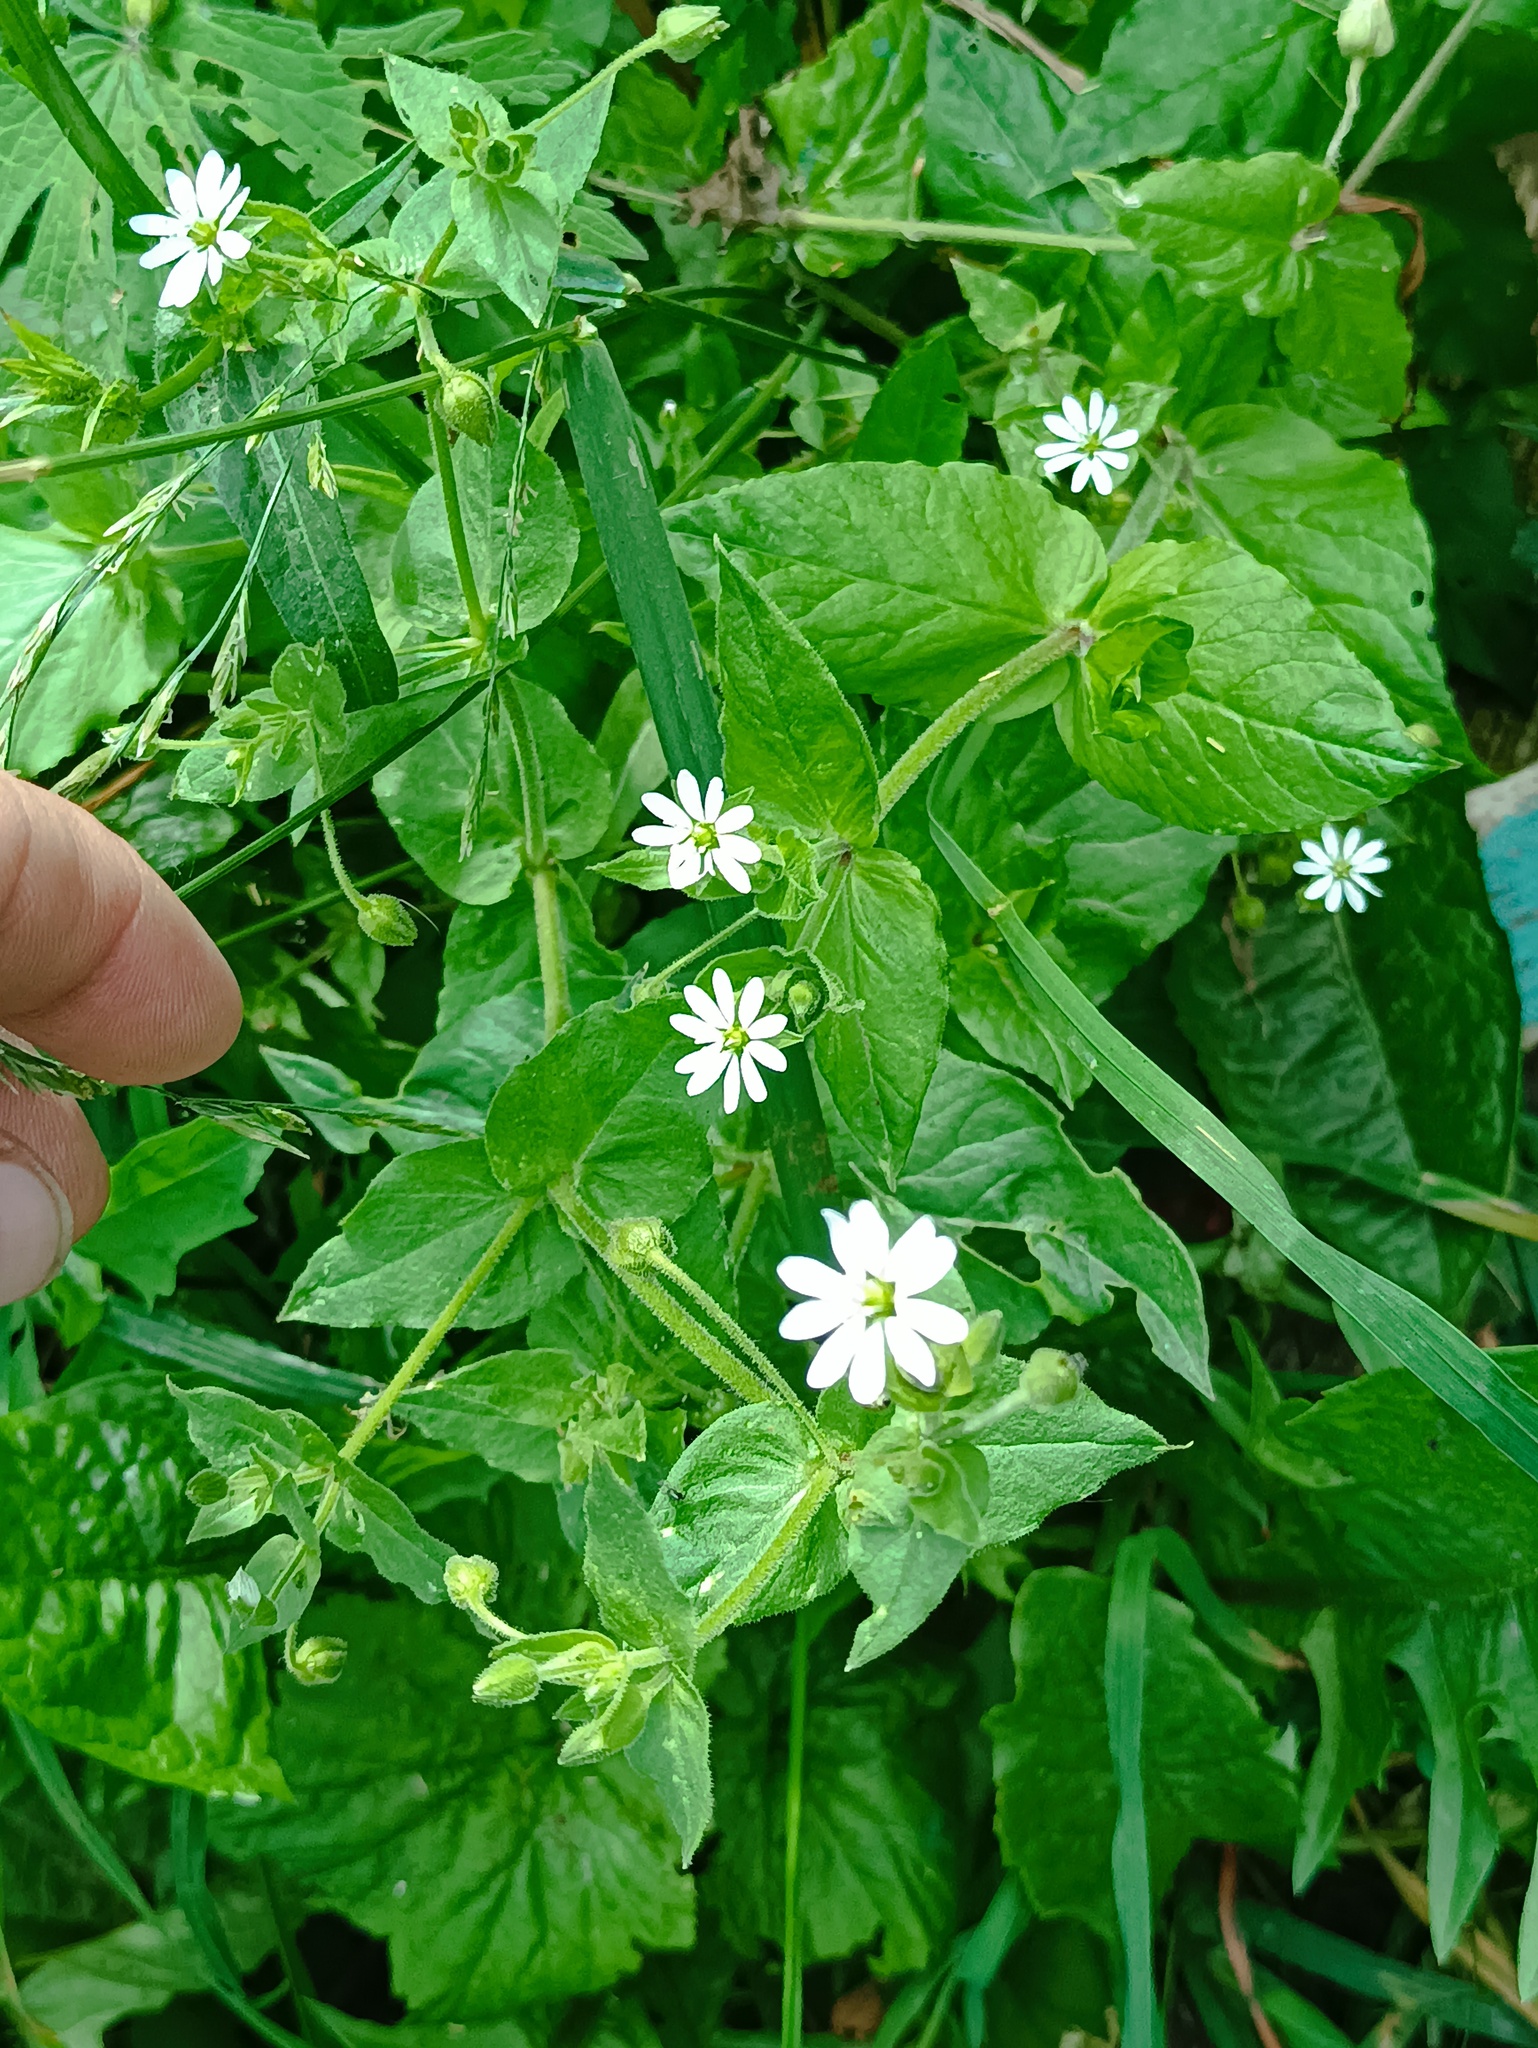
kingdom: Plantae
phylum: Tracheophyta
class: Magnoliopsida
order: Caryophyllales
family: Caryophyllaceae
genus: Stellaria
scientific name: Stellaria aquatica
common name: Water chickweed
